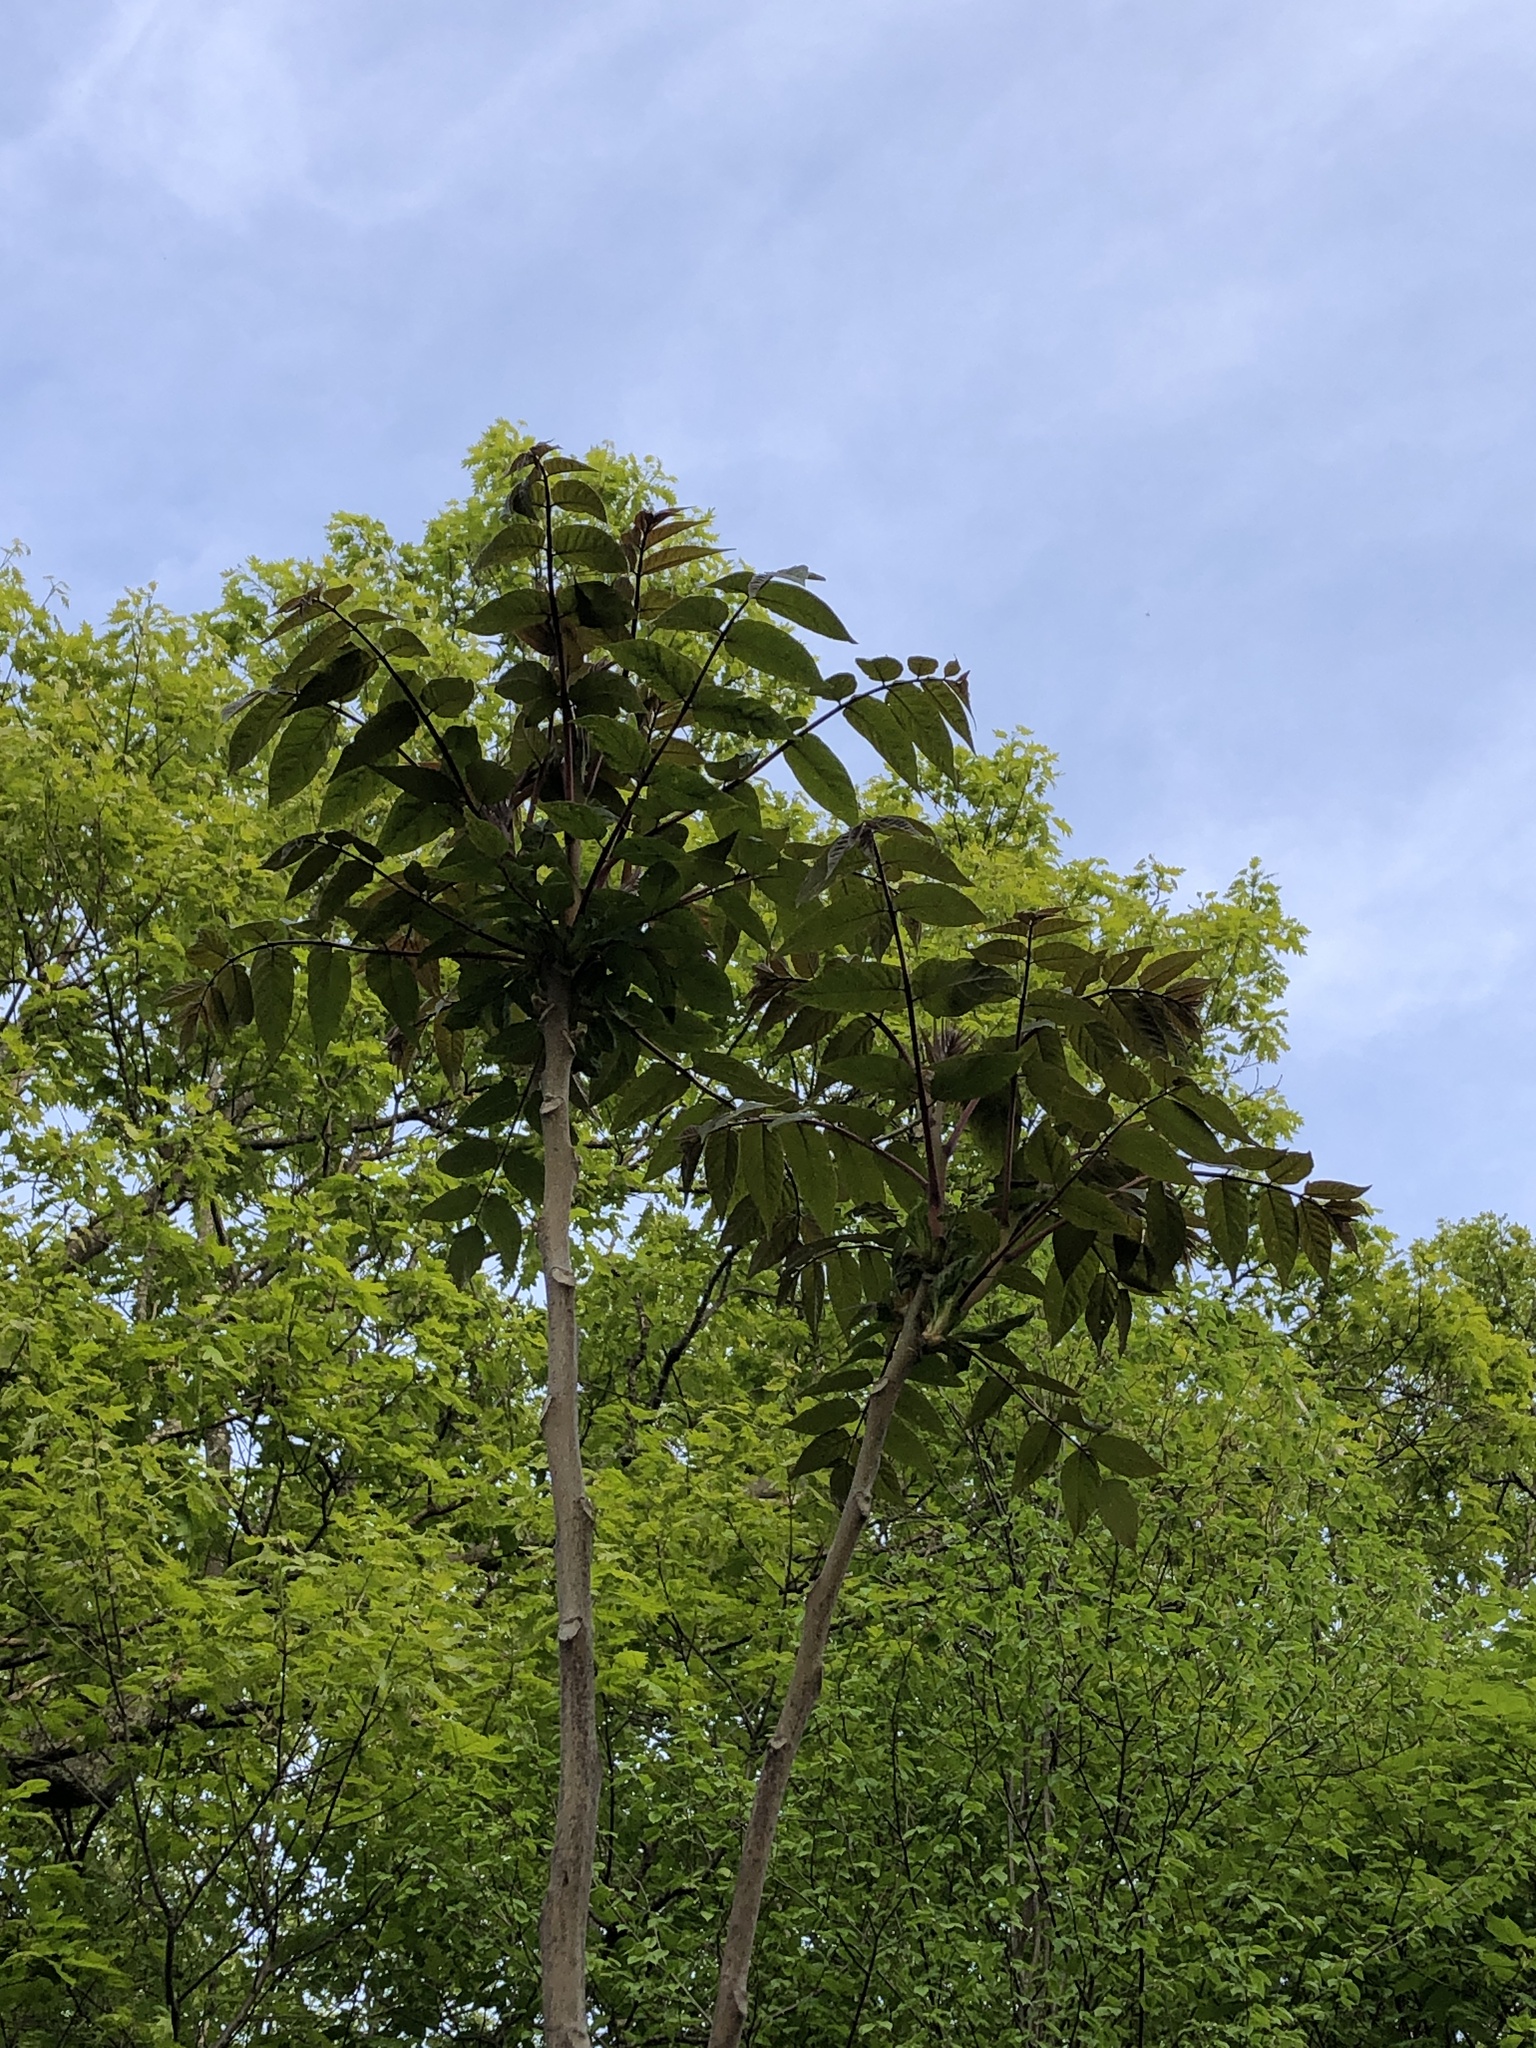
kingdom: Plantae
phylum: Tracheophyta
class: Magnoliopsida
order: Sapindales
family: Simaroubaceae
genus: Ailanthus
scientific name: Ailanthus altissima
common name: Tree-of-heaven
